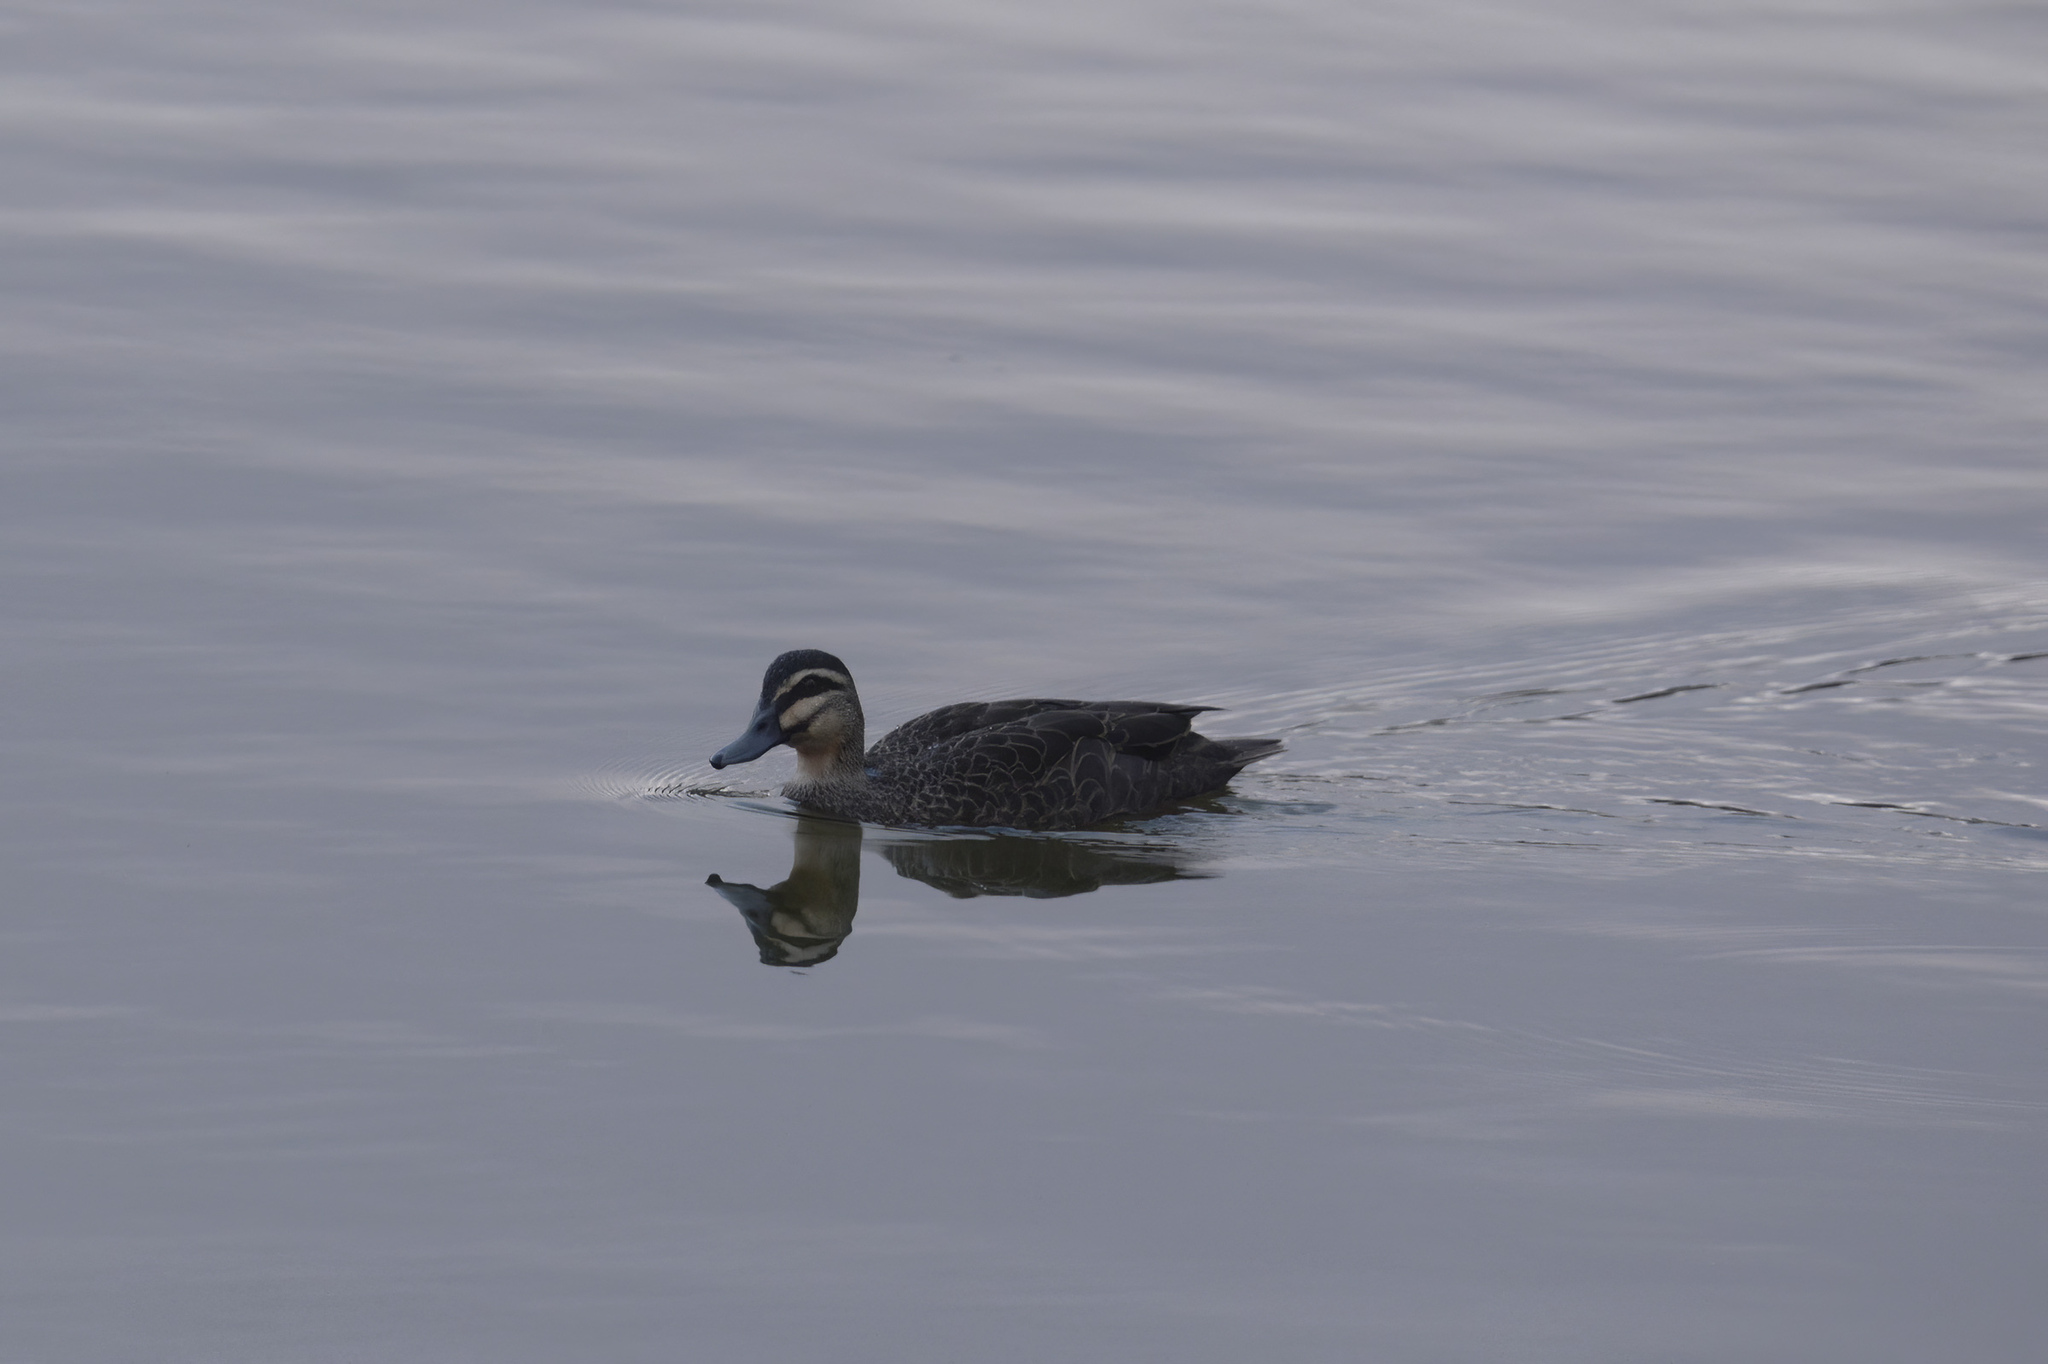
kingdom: Animalia
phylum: Chordata
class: Aves
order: Anseriformes
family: Anatidae
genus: Anas
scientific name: Anas superciliosa
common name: Pacific black duck
